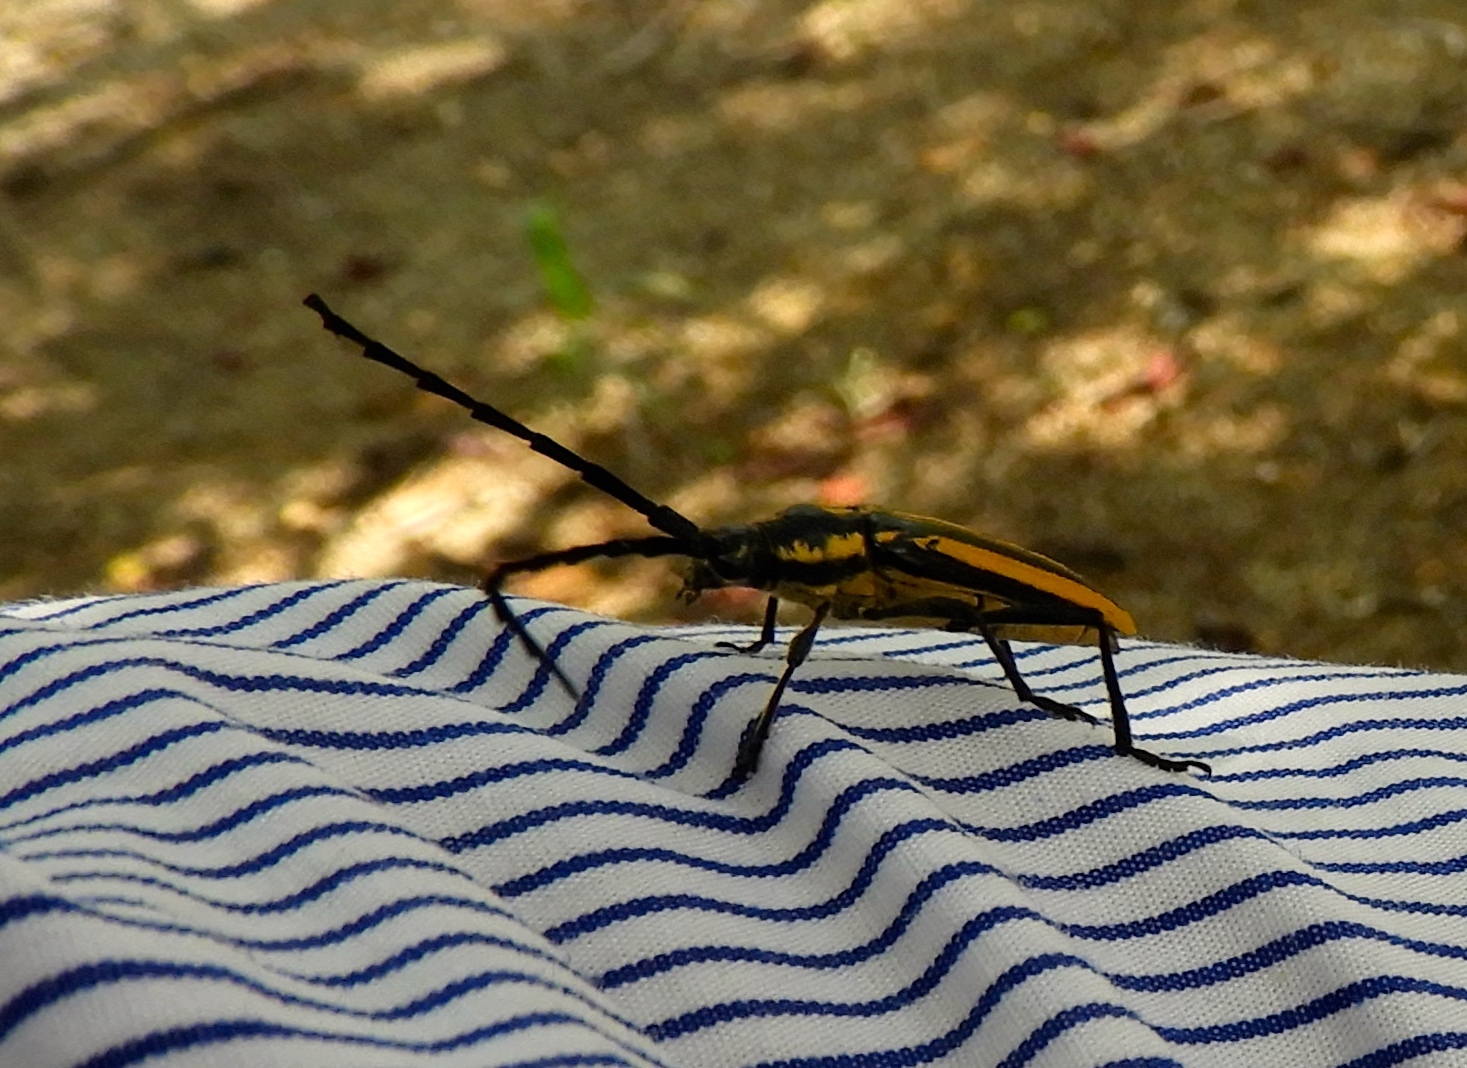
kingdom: Animalia
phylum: Arthropoda
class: Insecta
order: Coleoptera
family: Cerambycidae
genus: Sphaenothecus
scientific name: Sphaenothecus trilineatus
